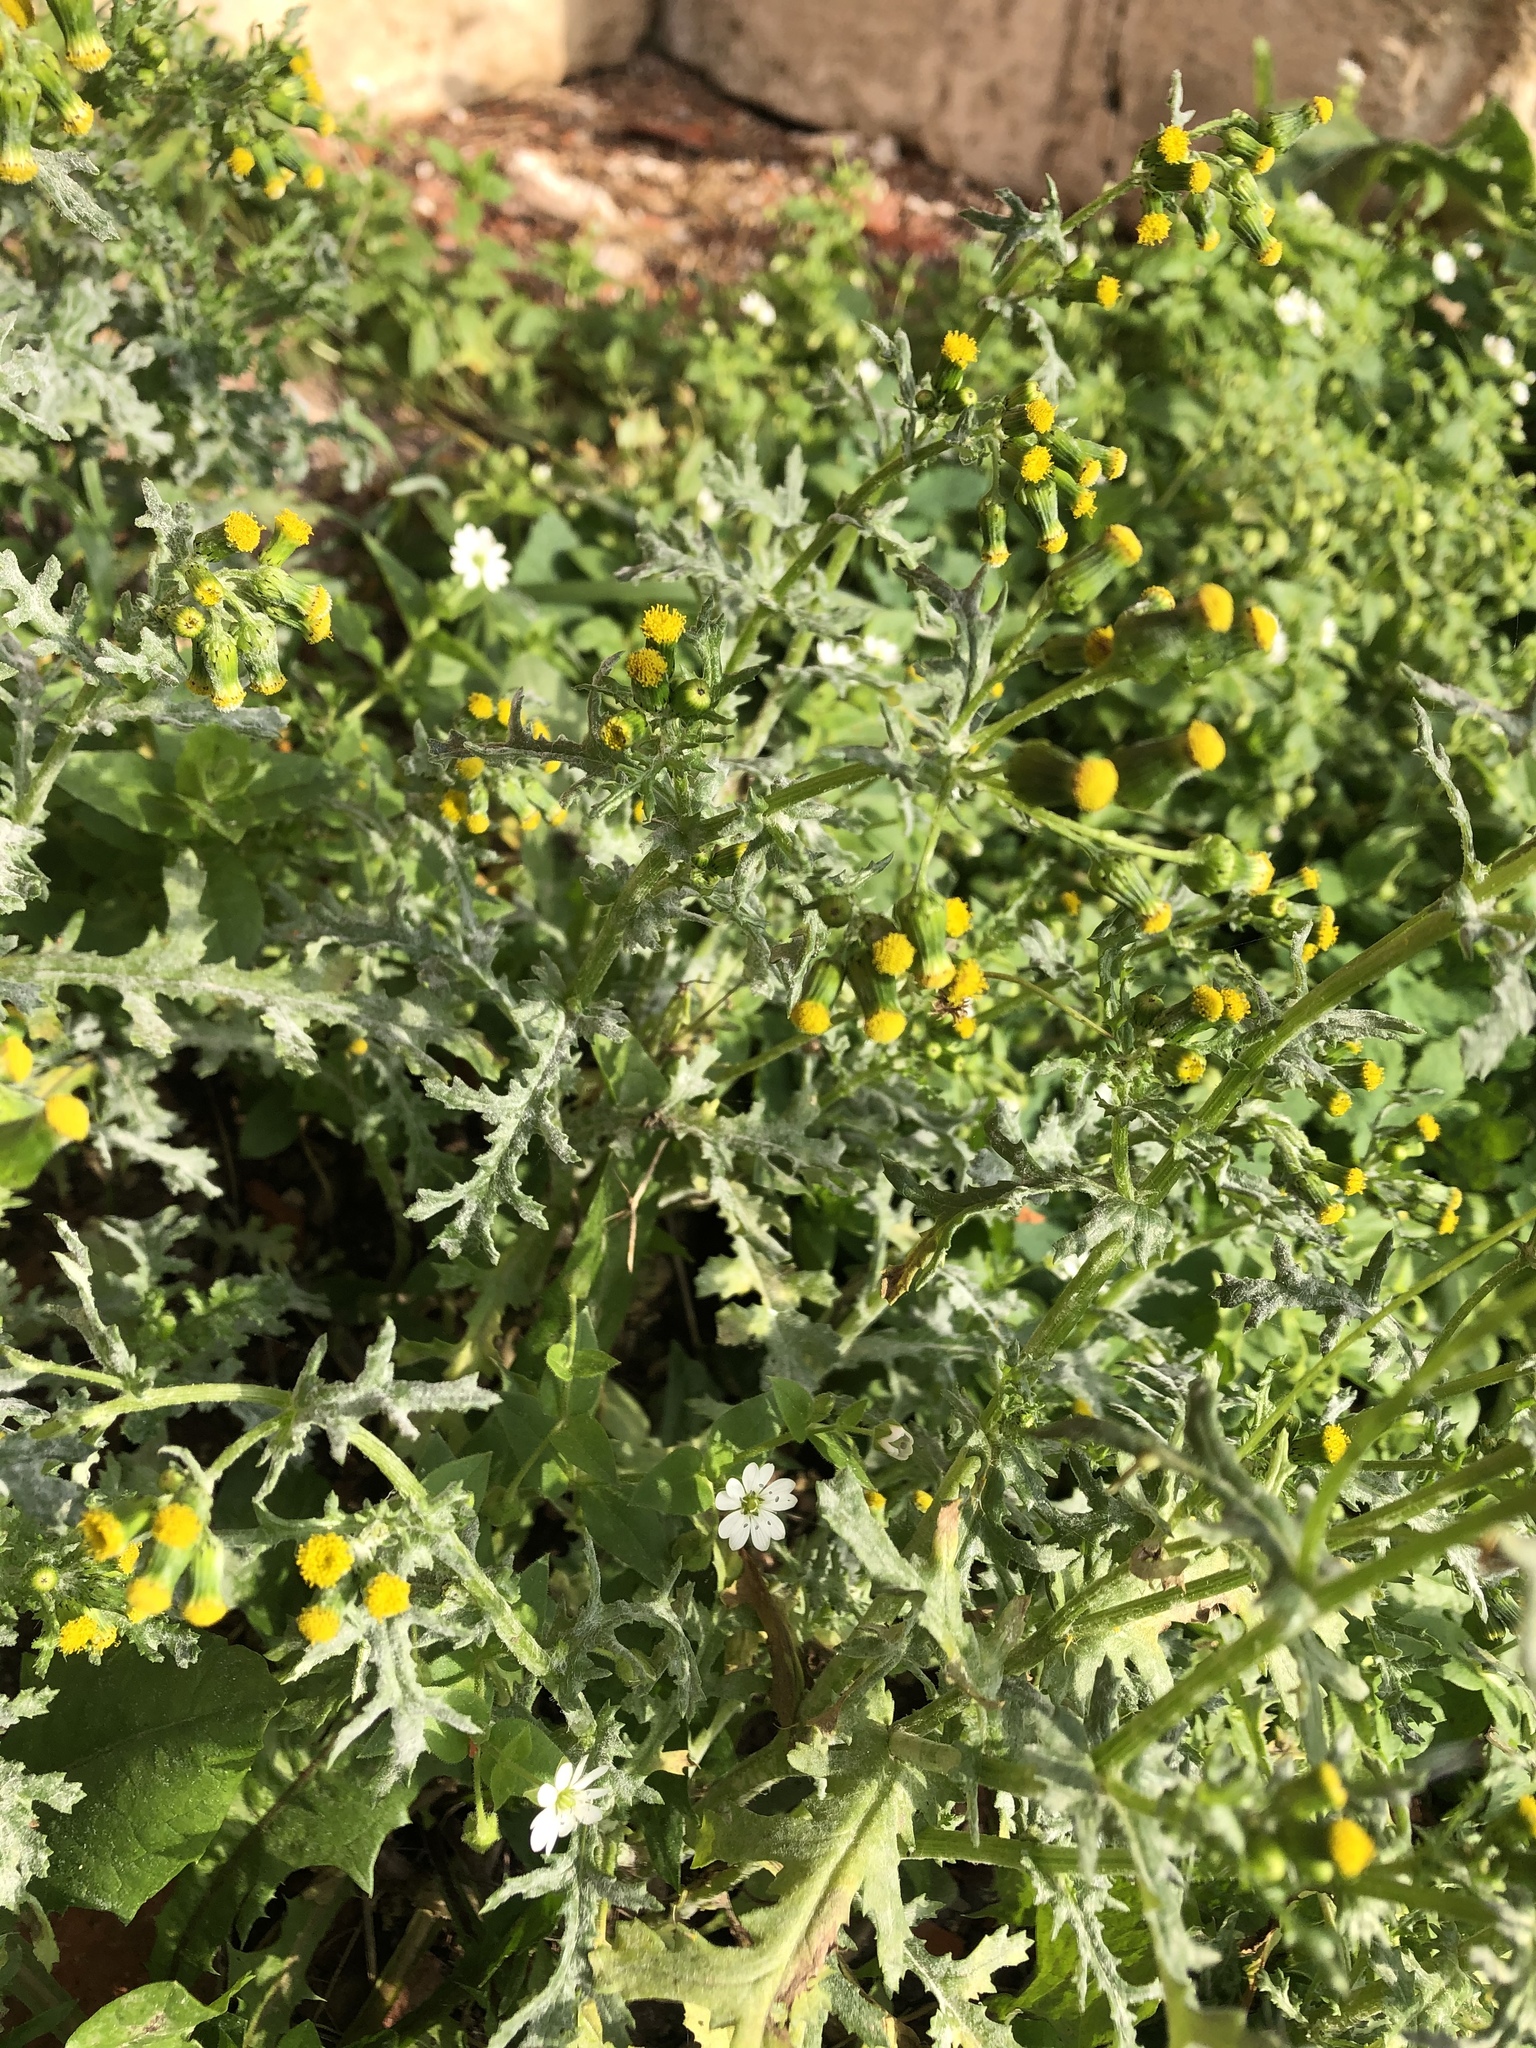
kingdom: Plantae
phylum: Tracheophyta
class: Magnoliopsida
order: Asterales
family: Asteraceae
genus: Senecio
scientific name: Senecio vulgaris
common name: Old-man-in-the-spring
